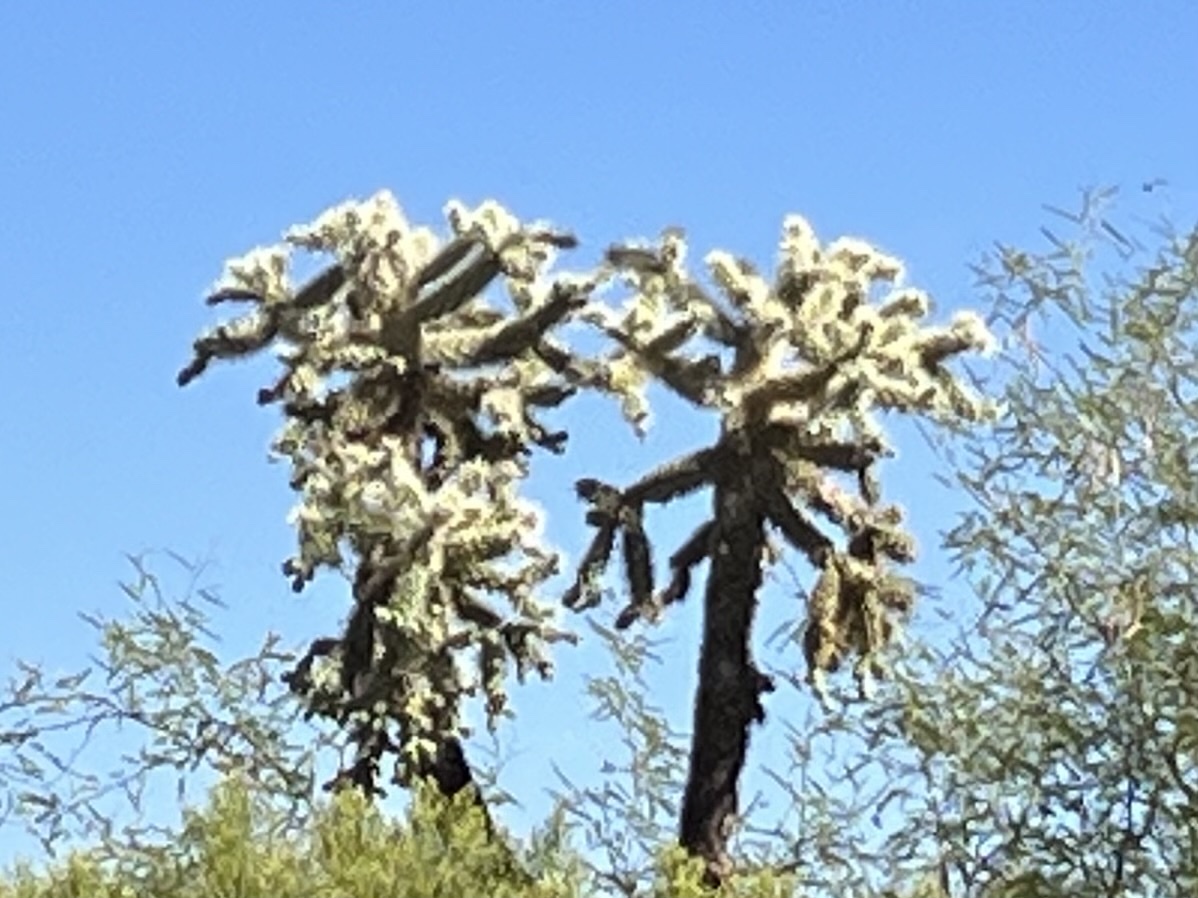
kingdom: Plantae
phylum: Tracheophyta
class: Magnoliopsida
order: Caryophyllales
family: Cactaceae
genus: Cylindropuntia
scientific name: Cylindropuntia fulgida
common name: Jumping cholla
